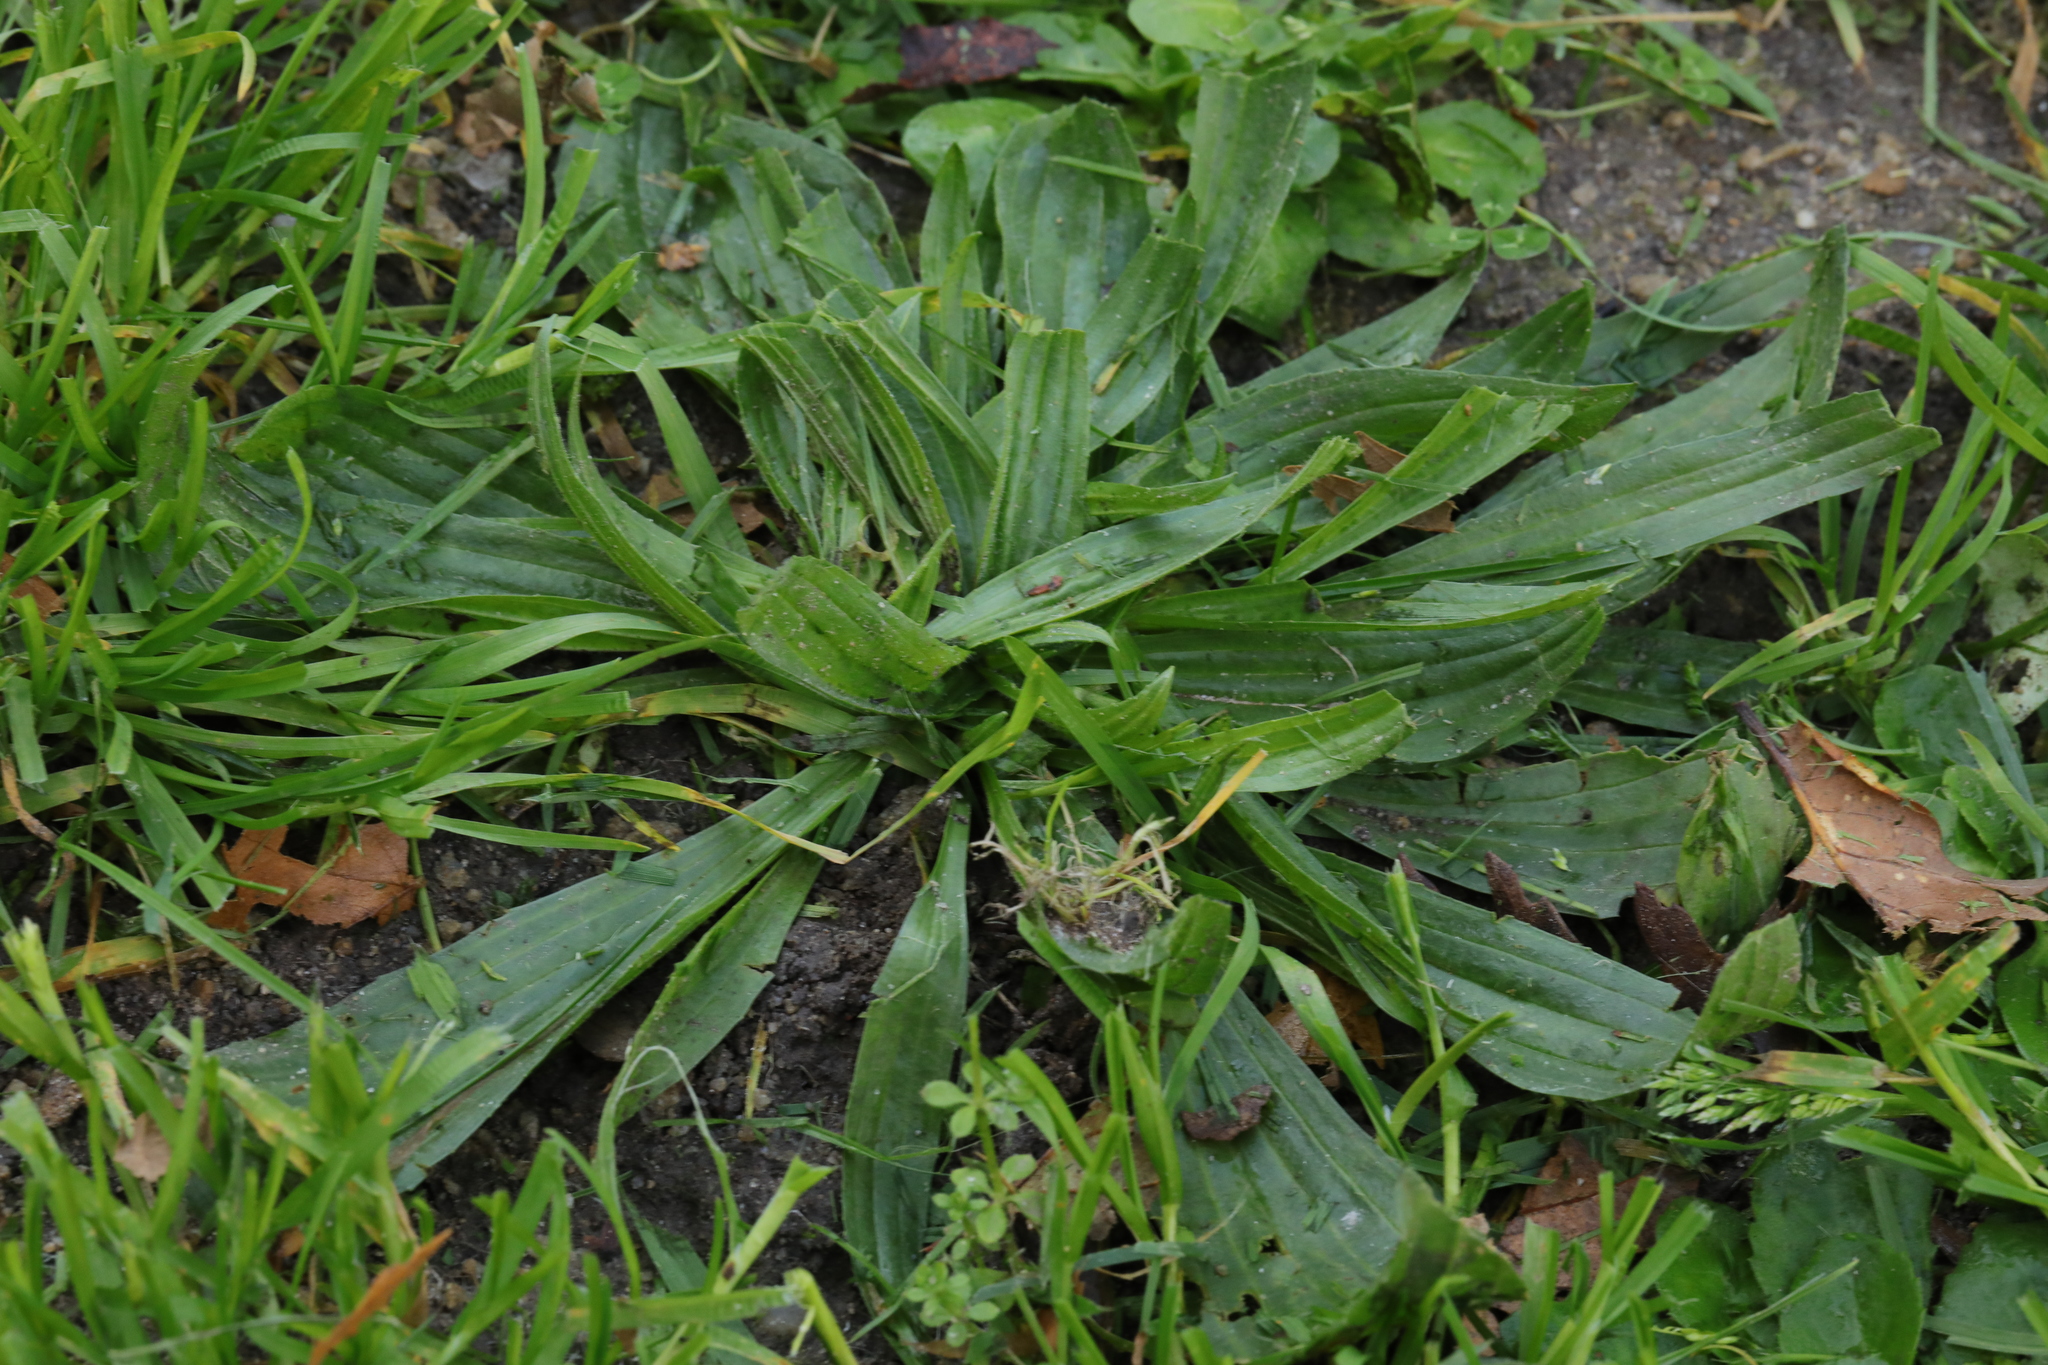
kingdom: Plantae
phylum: Tracheophyta
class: Magnoliopsida
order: Lamiales
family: Plantaginaceae
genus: Plantago
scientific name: Plantago lanceolata
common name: Ribwort plantain
